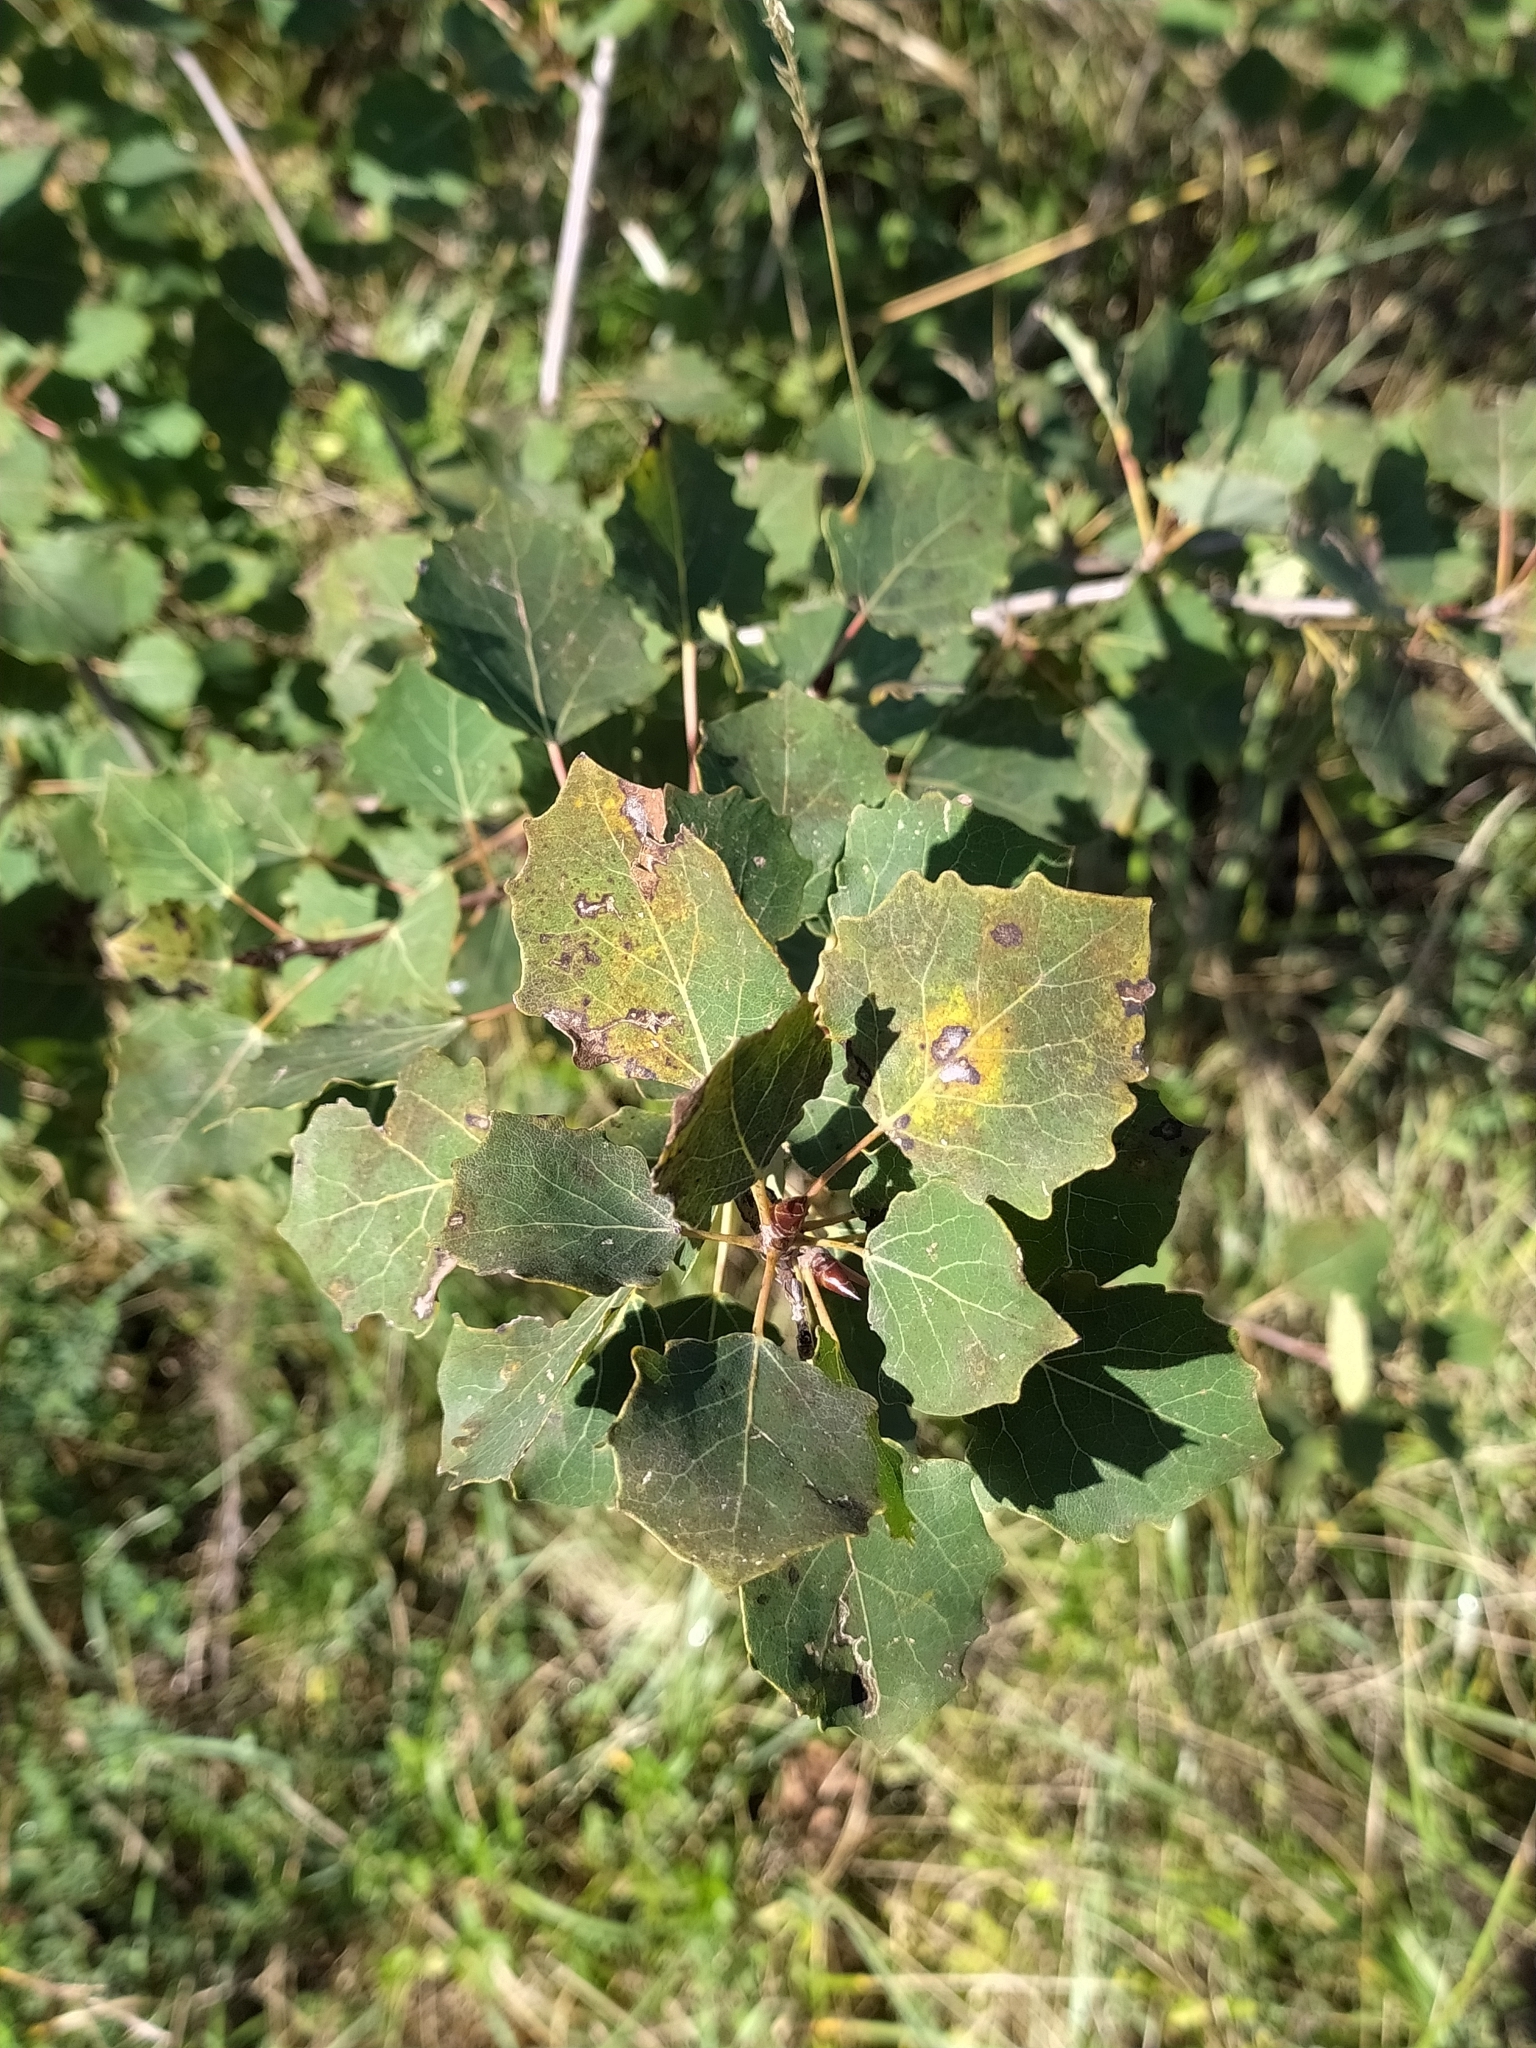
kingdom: Plantae
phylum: Tracheophyta
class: Magnoliopsida
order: Malpighiales
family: Salicaceae
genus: Populus
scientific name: Populus tremula
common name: European aspen
